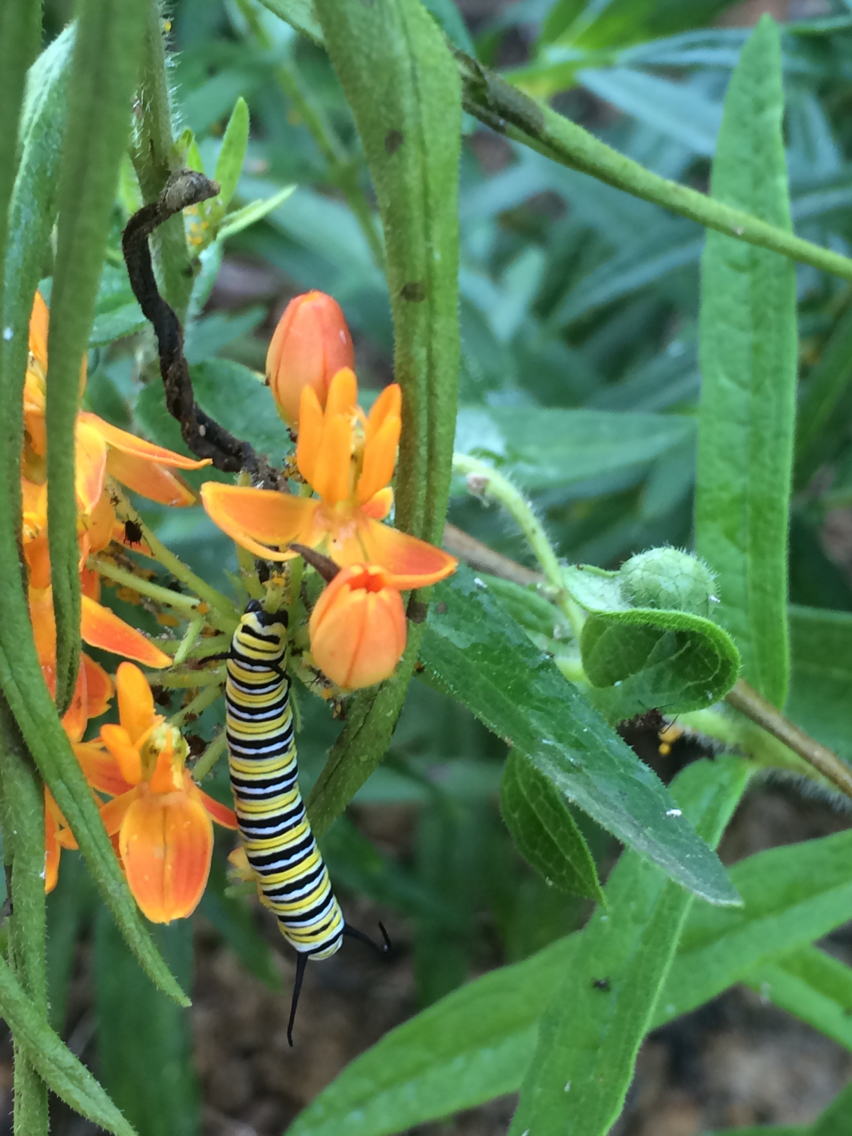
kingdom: Animalia
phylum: Arthropoda
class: Insecta
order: Lepidoptera
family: Nymphalidae
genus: Danaus
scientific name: Danaus plexippus
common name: Monarch
